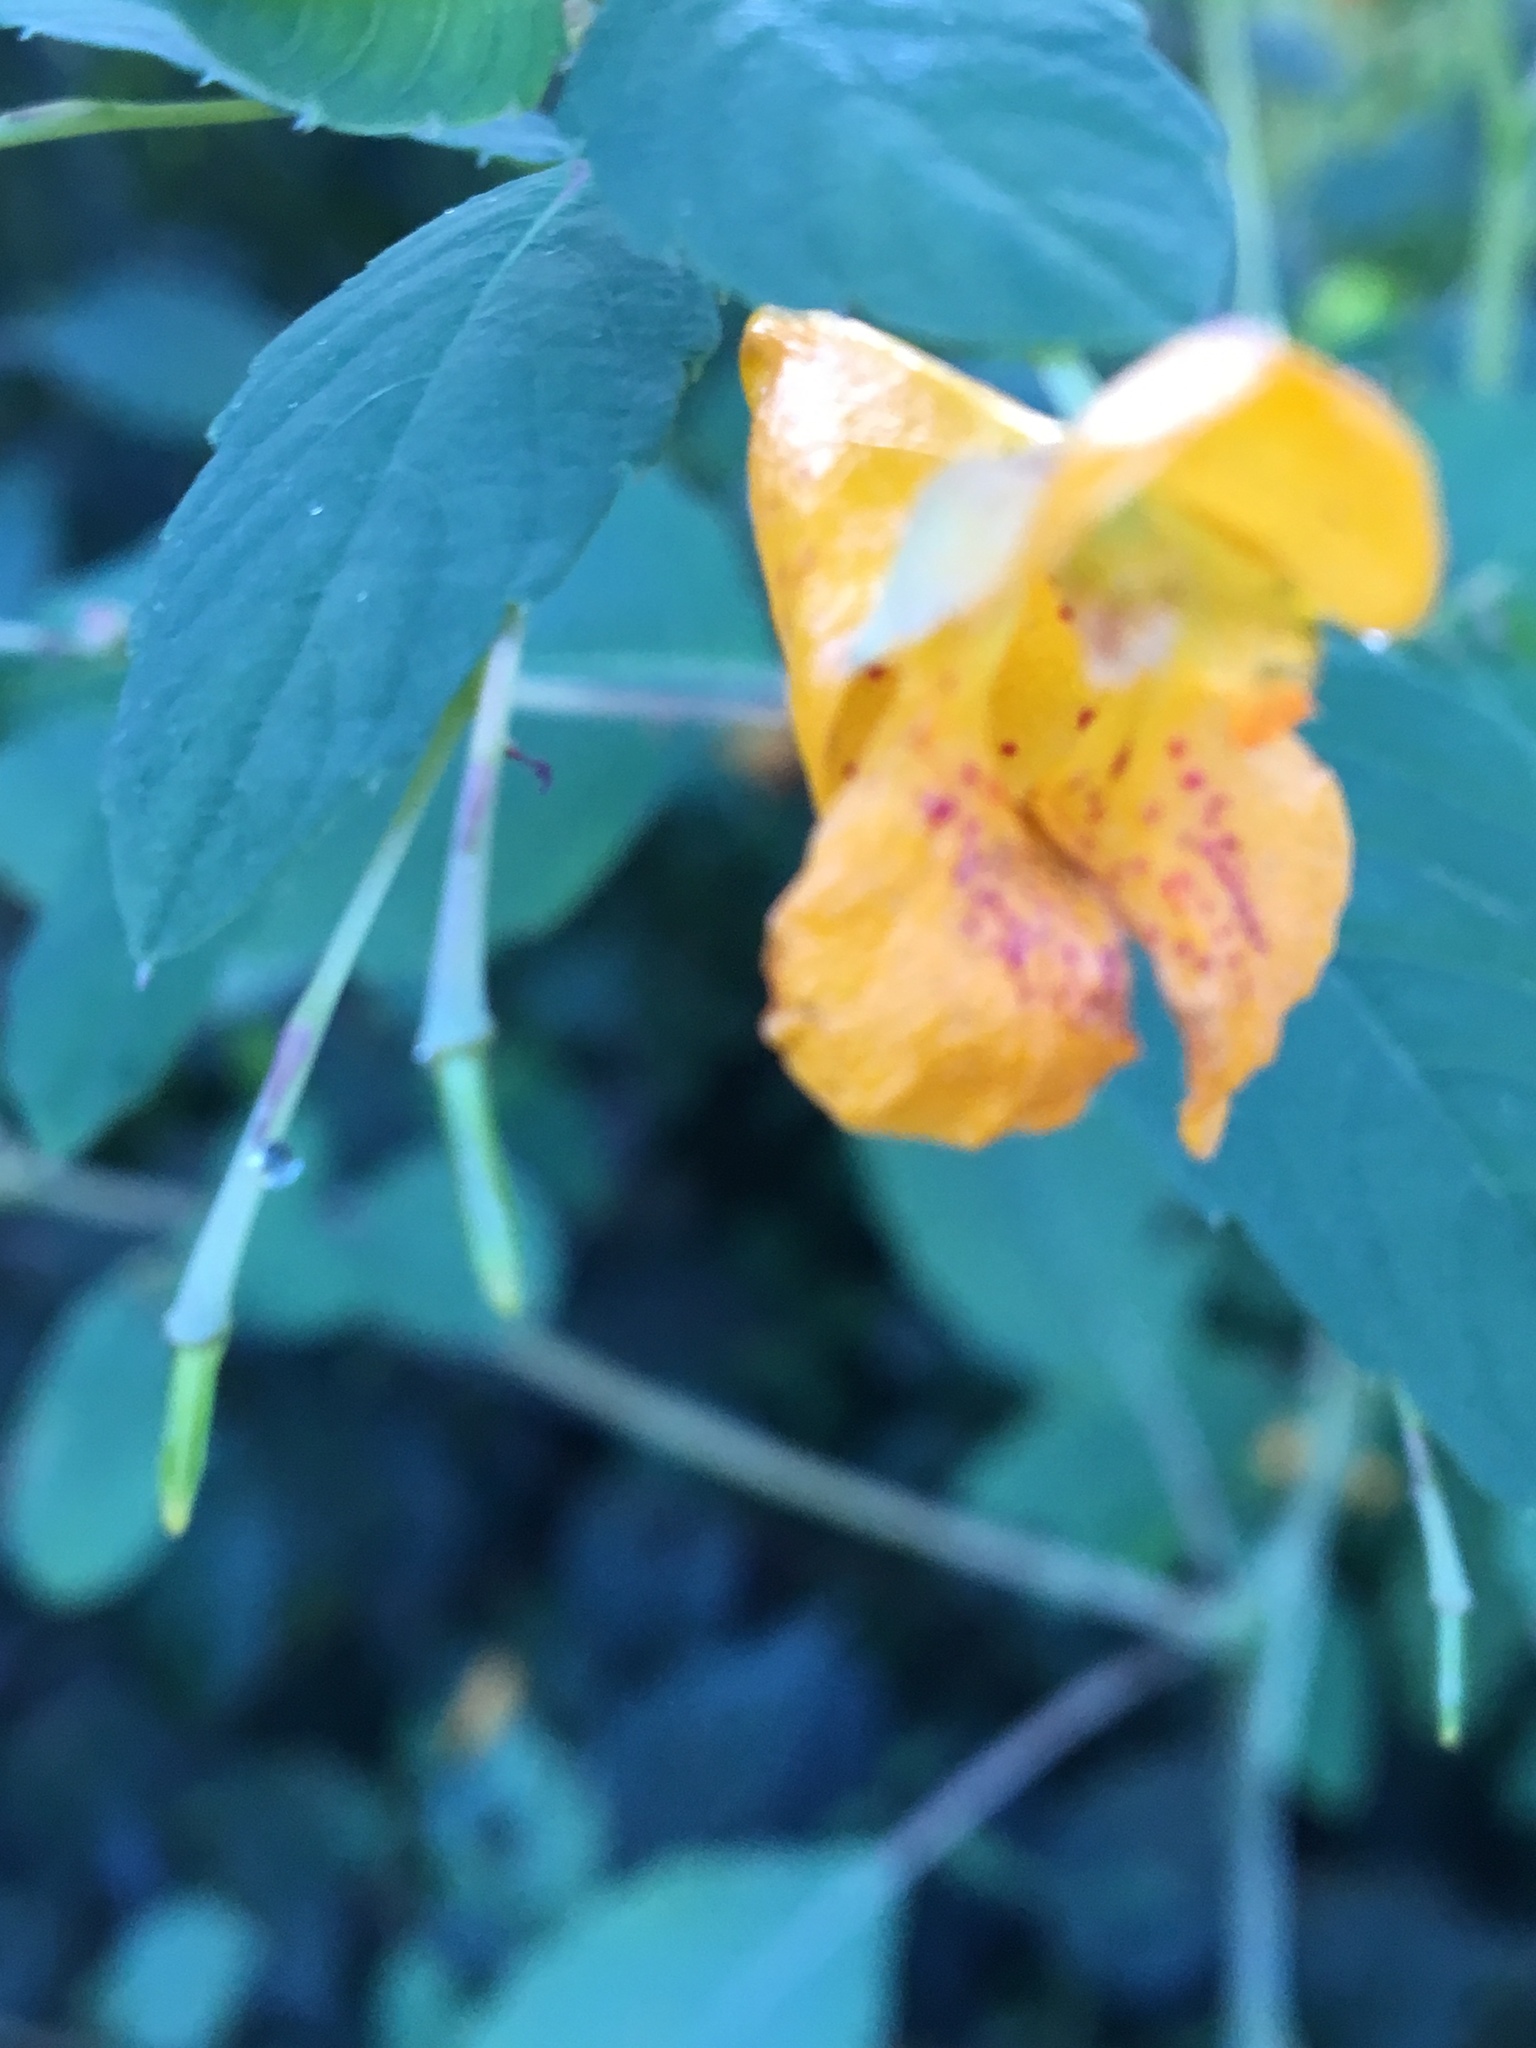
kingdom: Plantae
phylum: Tracheophyta
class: Magnoliopsida
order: Ericales
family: Balsaminaceae
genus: Impatiens
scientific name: Impatiens capensis
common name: Orange balsam
